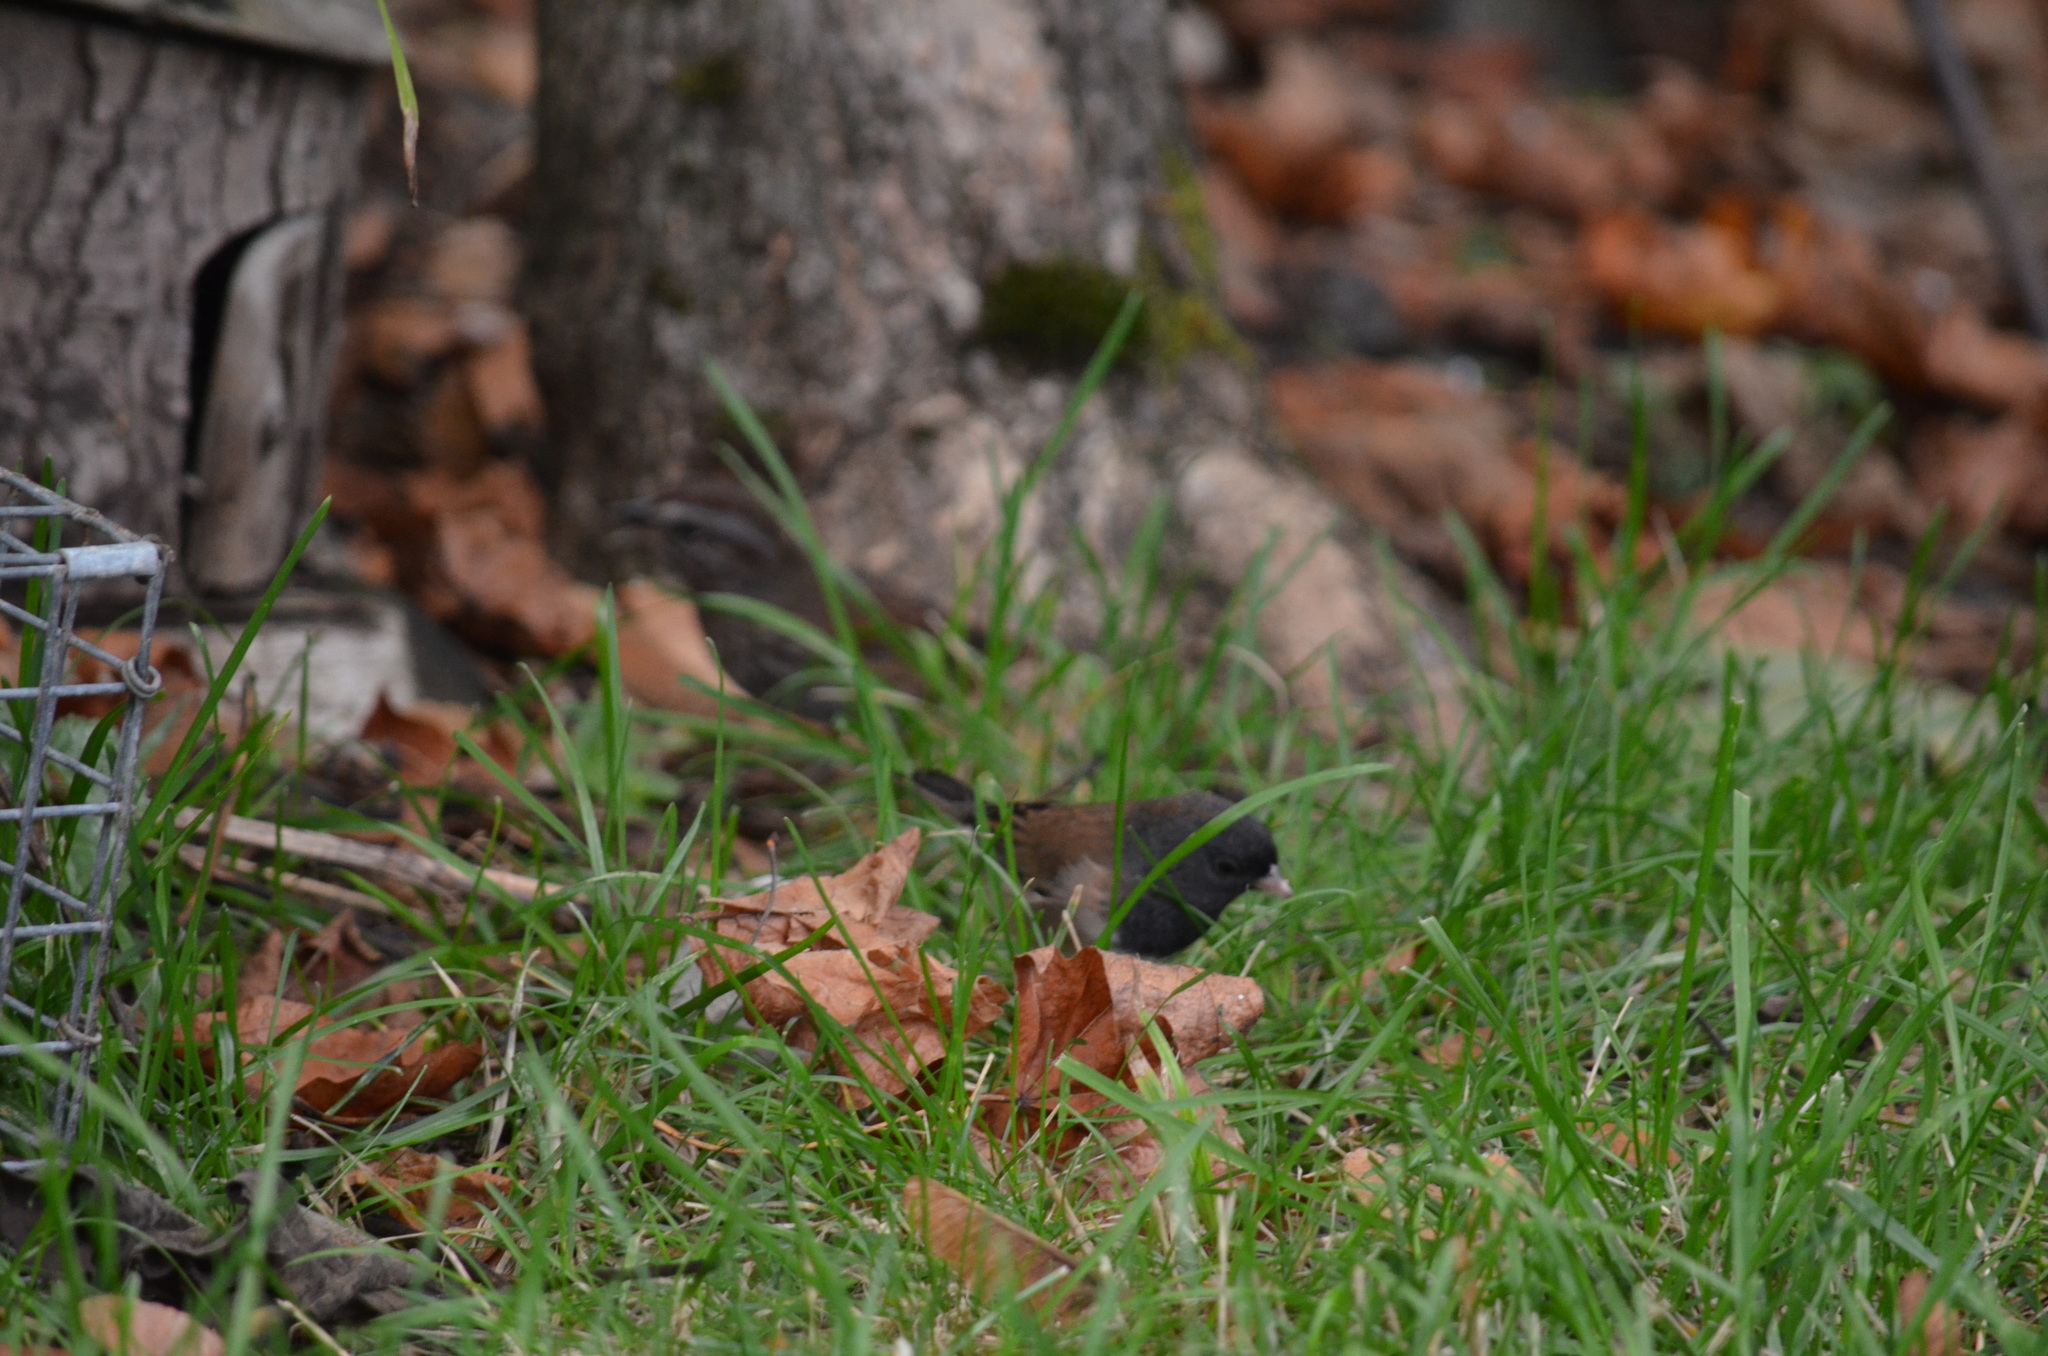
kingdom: Animalia
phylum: Chordata
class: Aves
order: Passeriformes
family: Passerellidae
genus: Junco
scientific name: Junco hyemalis
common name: Dark-eyed junco
